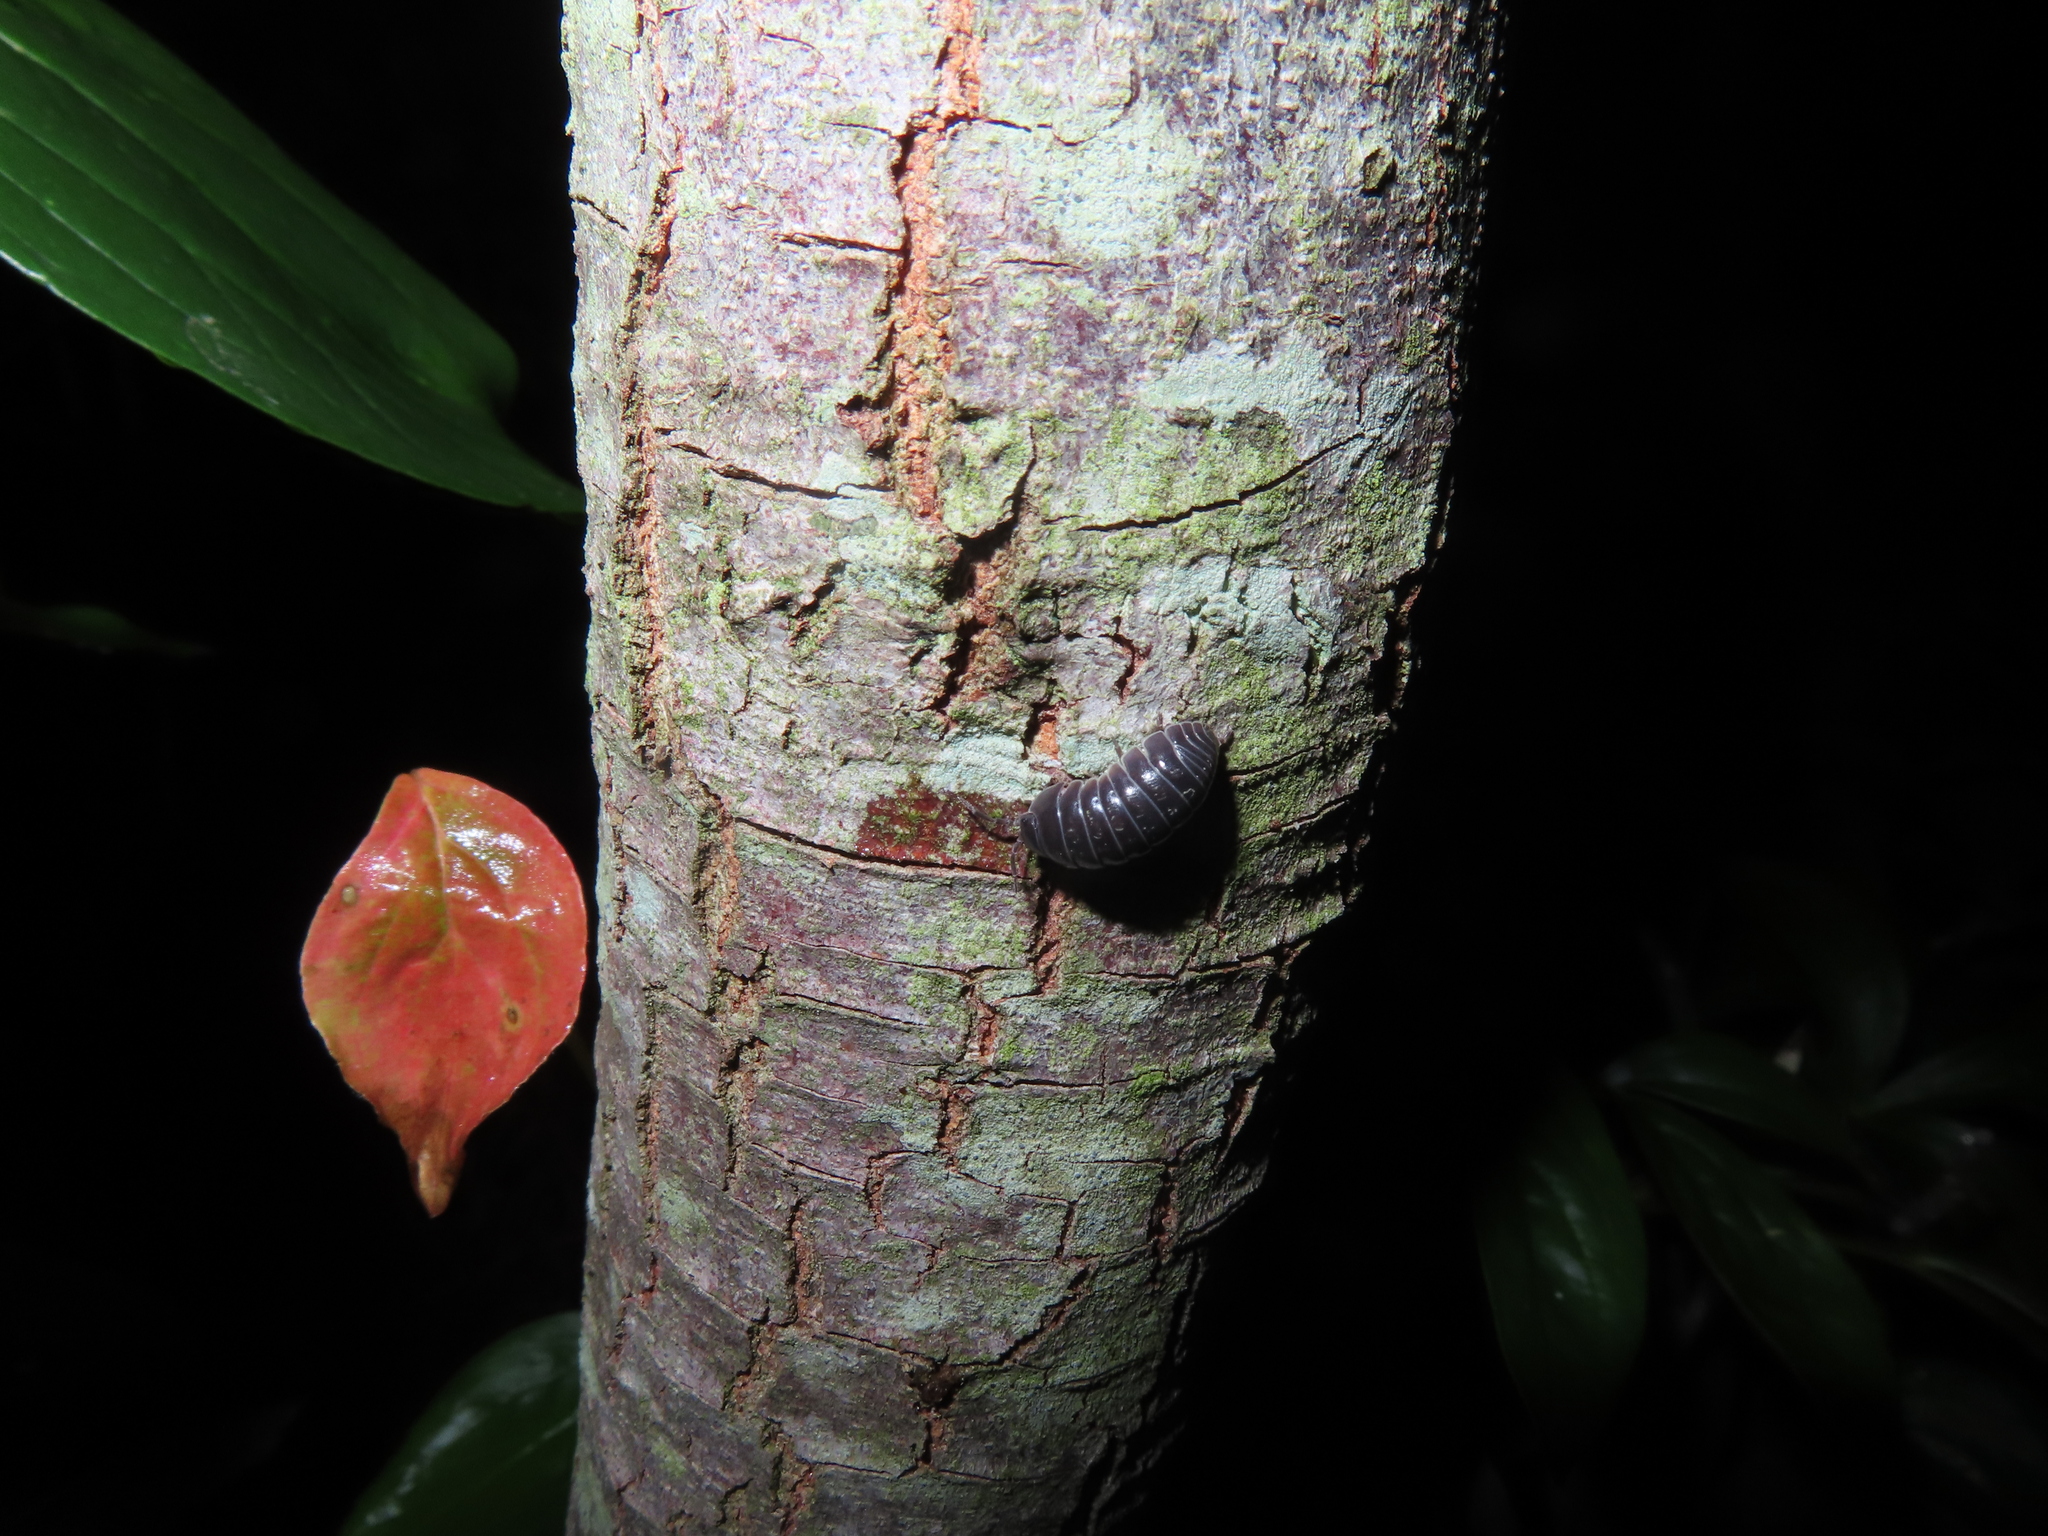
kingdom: Animalia
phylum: Arthropoda
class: Malacostraca
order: Isopoda
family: Armadillidiidae
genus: Armadillidium
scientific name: Armadillidium vulgare
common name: Common pill woodlouse
